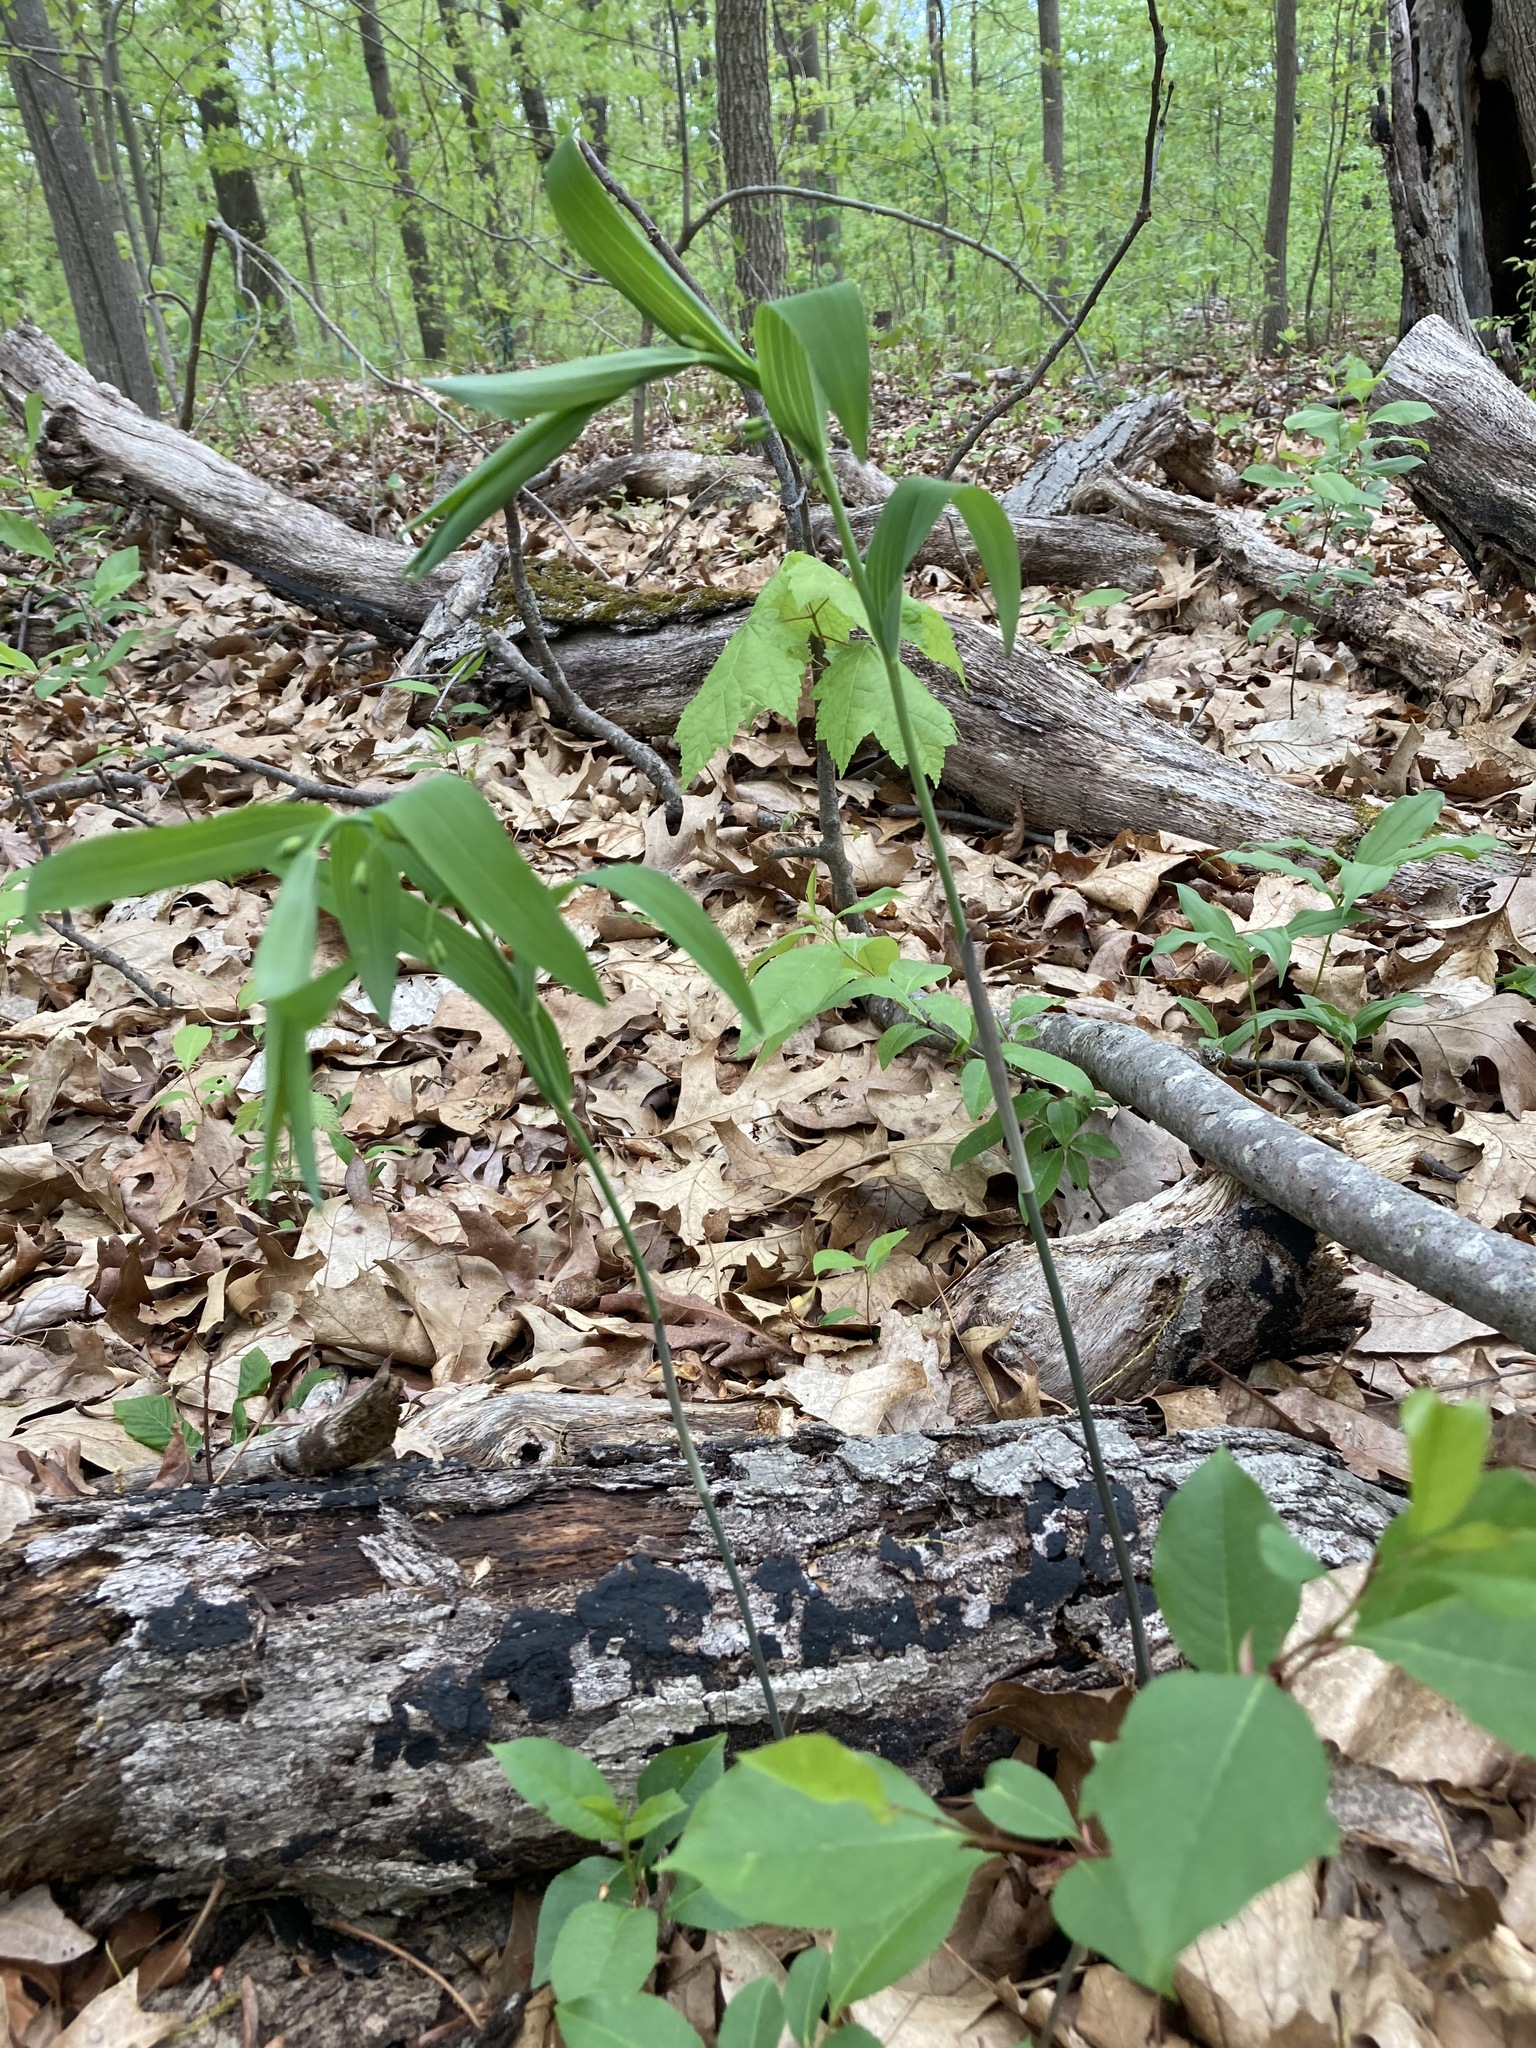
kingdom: Plantae
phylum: Tracheophyta
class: Liliopsida
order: Asparagales
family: Asparagaceae
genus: Polygonatum
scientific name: Polygonatum biflorum
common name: American solomon's-seal
